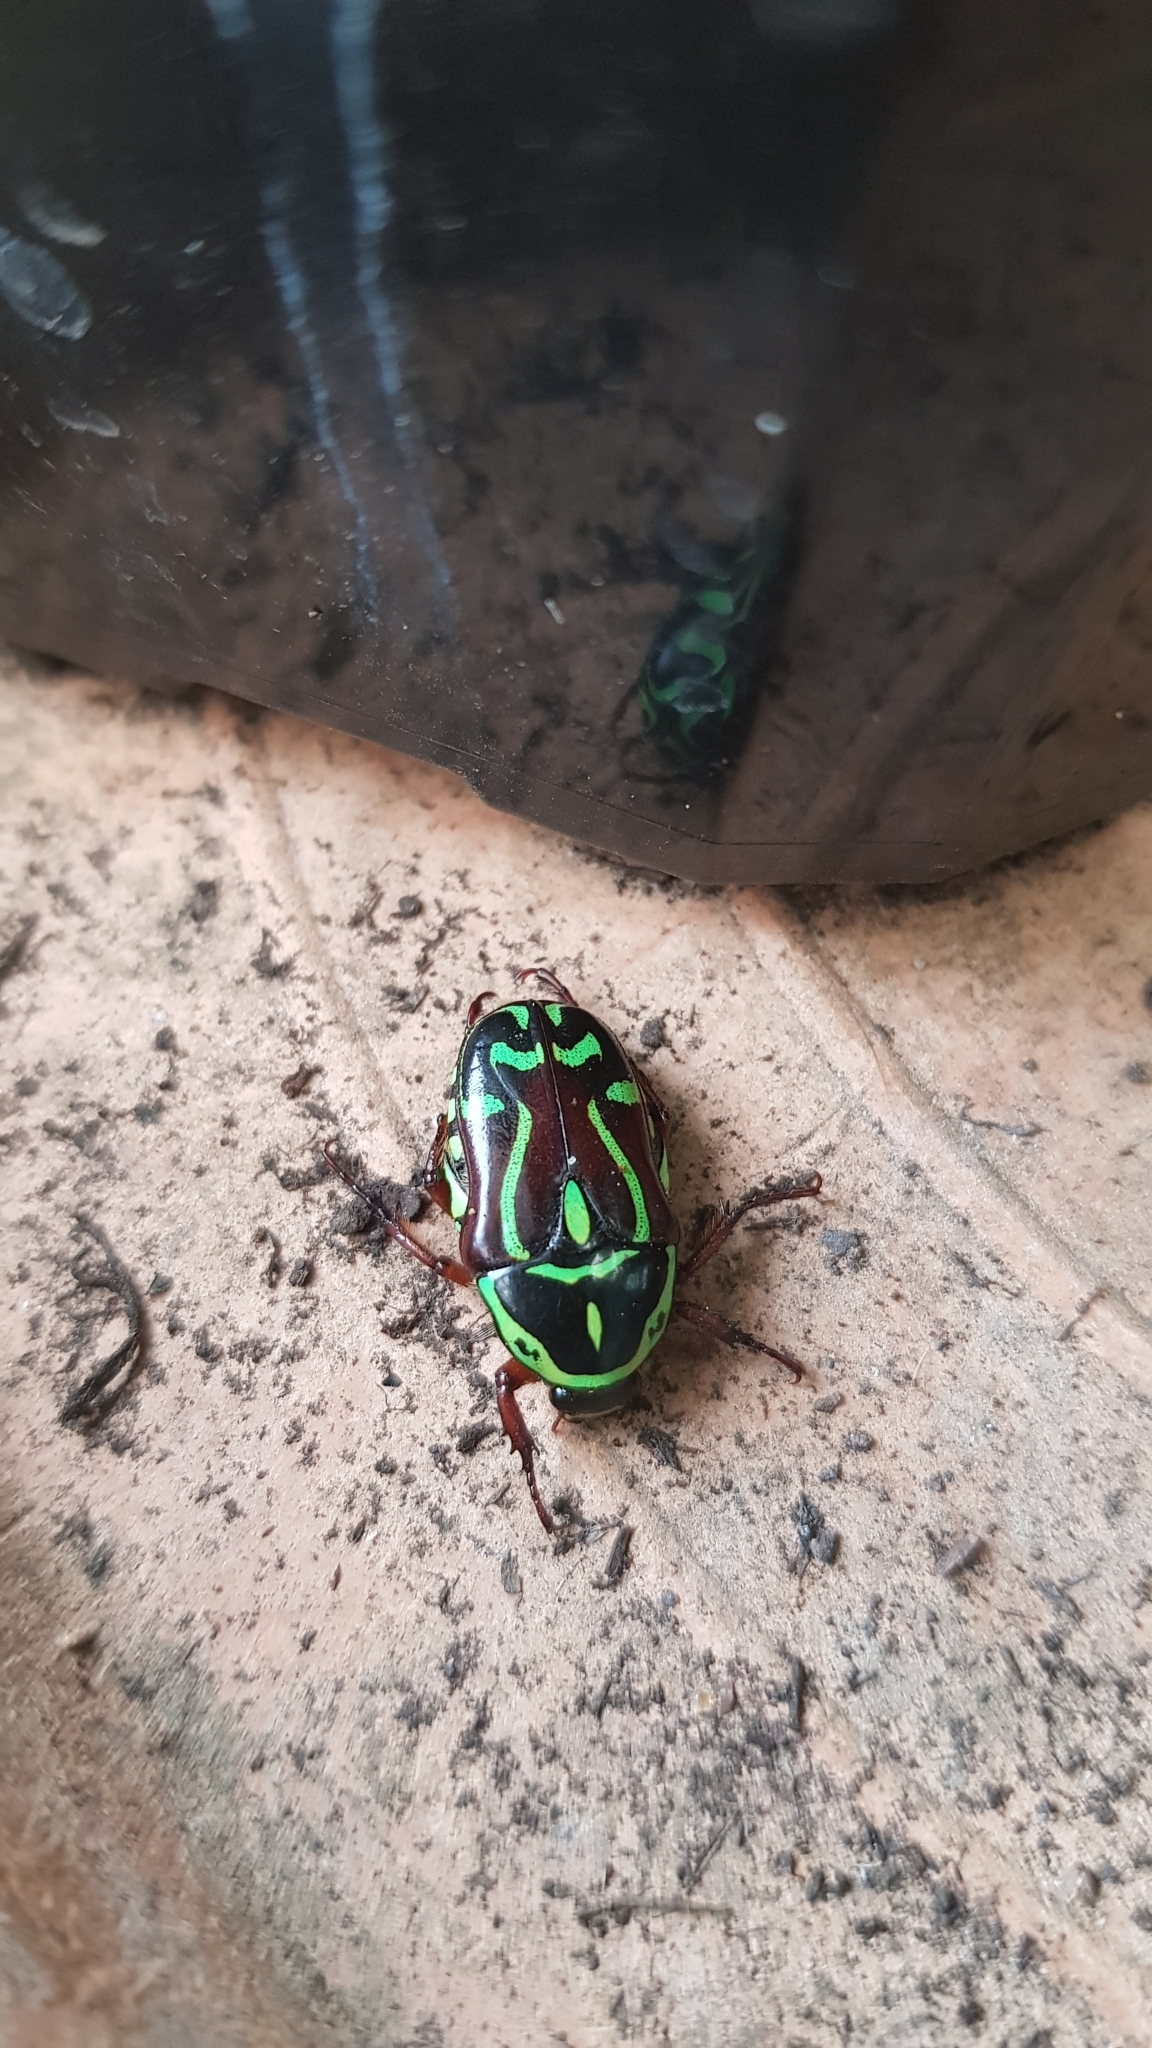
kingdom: Animalia
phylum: Arthropoda
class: Insecta
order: Coleoptera
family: Scarabaeidae
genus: Eupoecila
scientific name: Eupoecila australasiae
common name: Fiddler beetle
